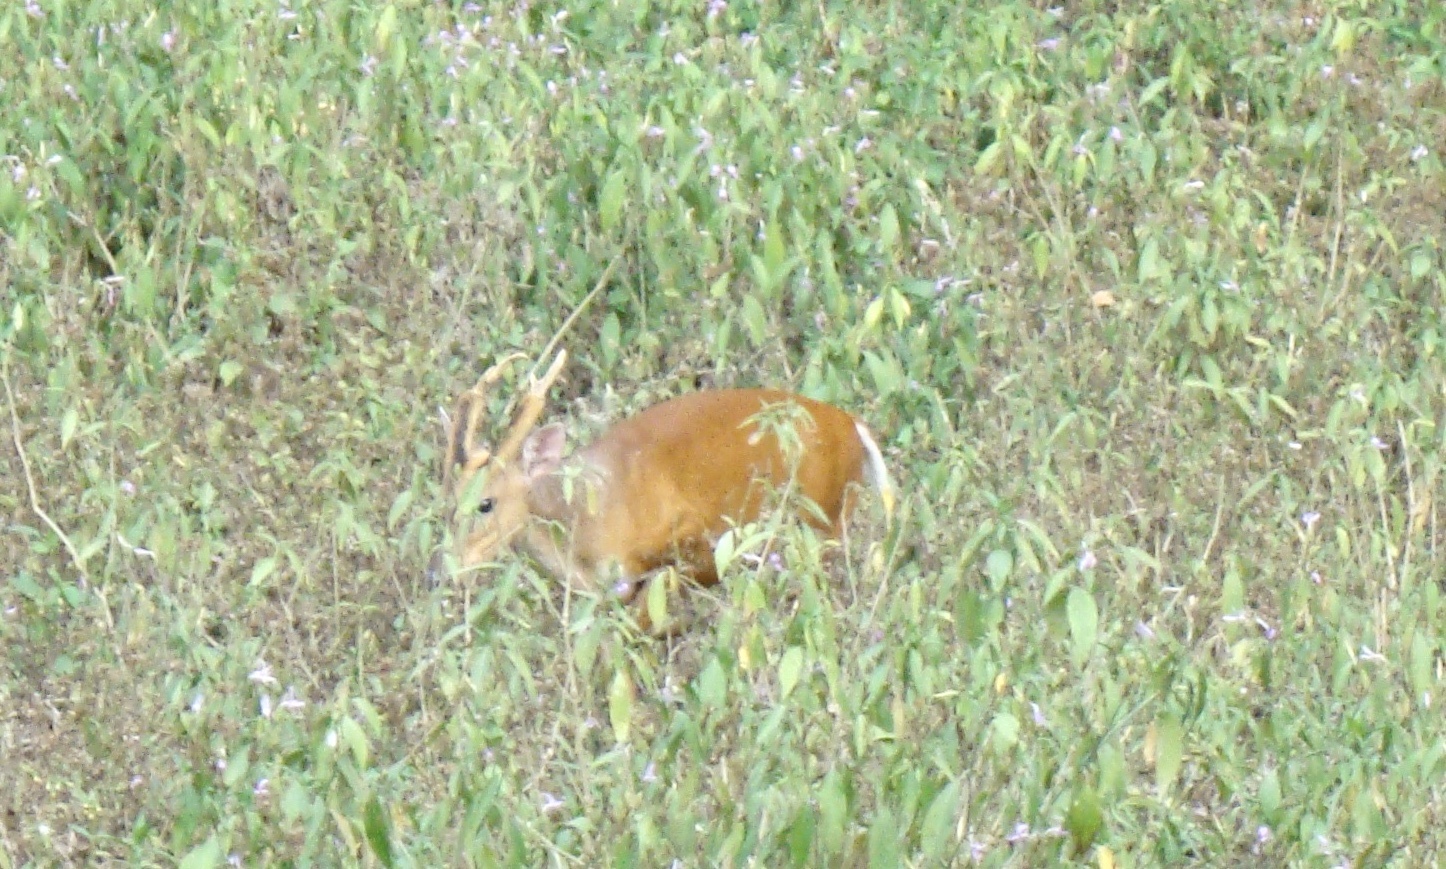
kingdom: Animalia
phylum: Chordata
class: Mammalia
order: Artiodactyla
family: Cervidae
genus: Muntiacus
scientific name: Muntiacus muntjak
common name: Indian muntjac
